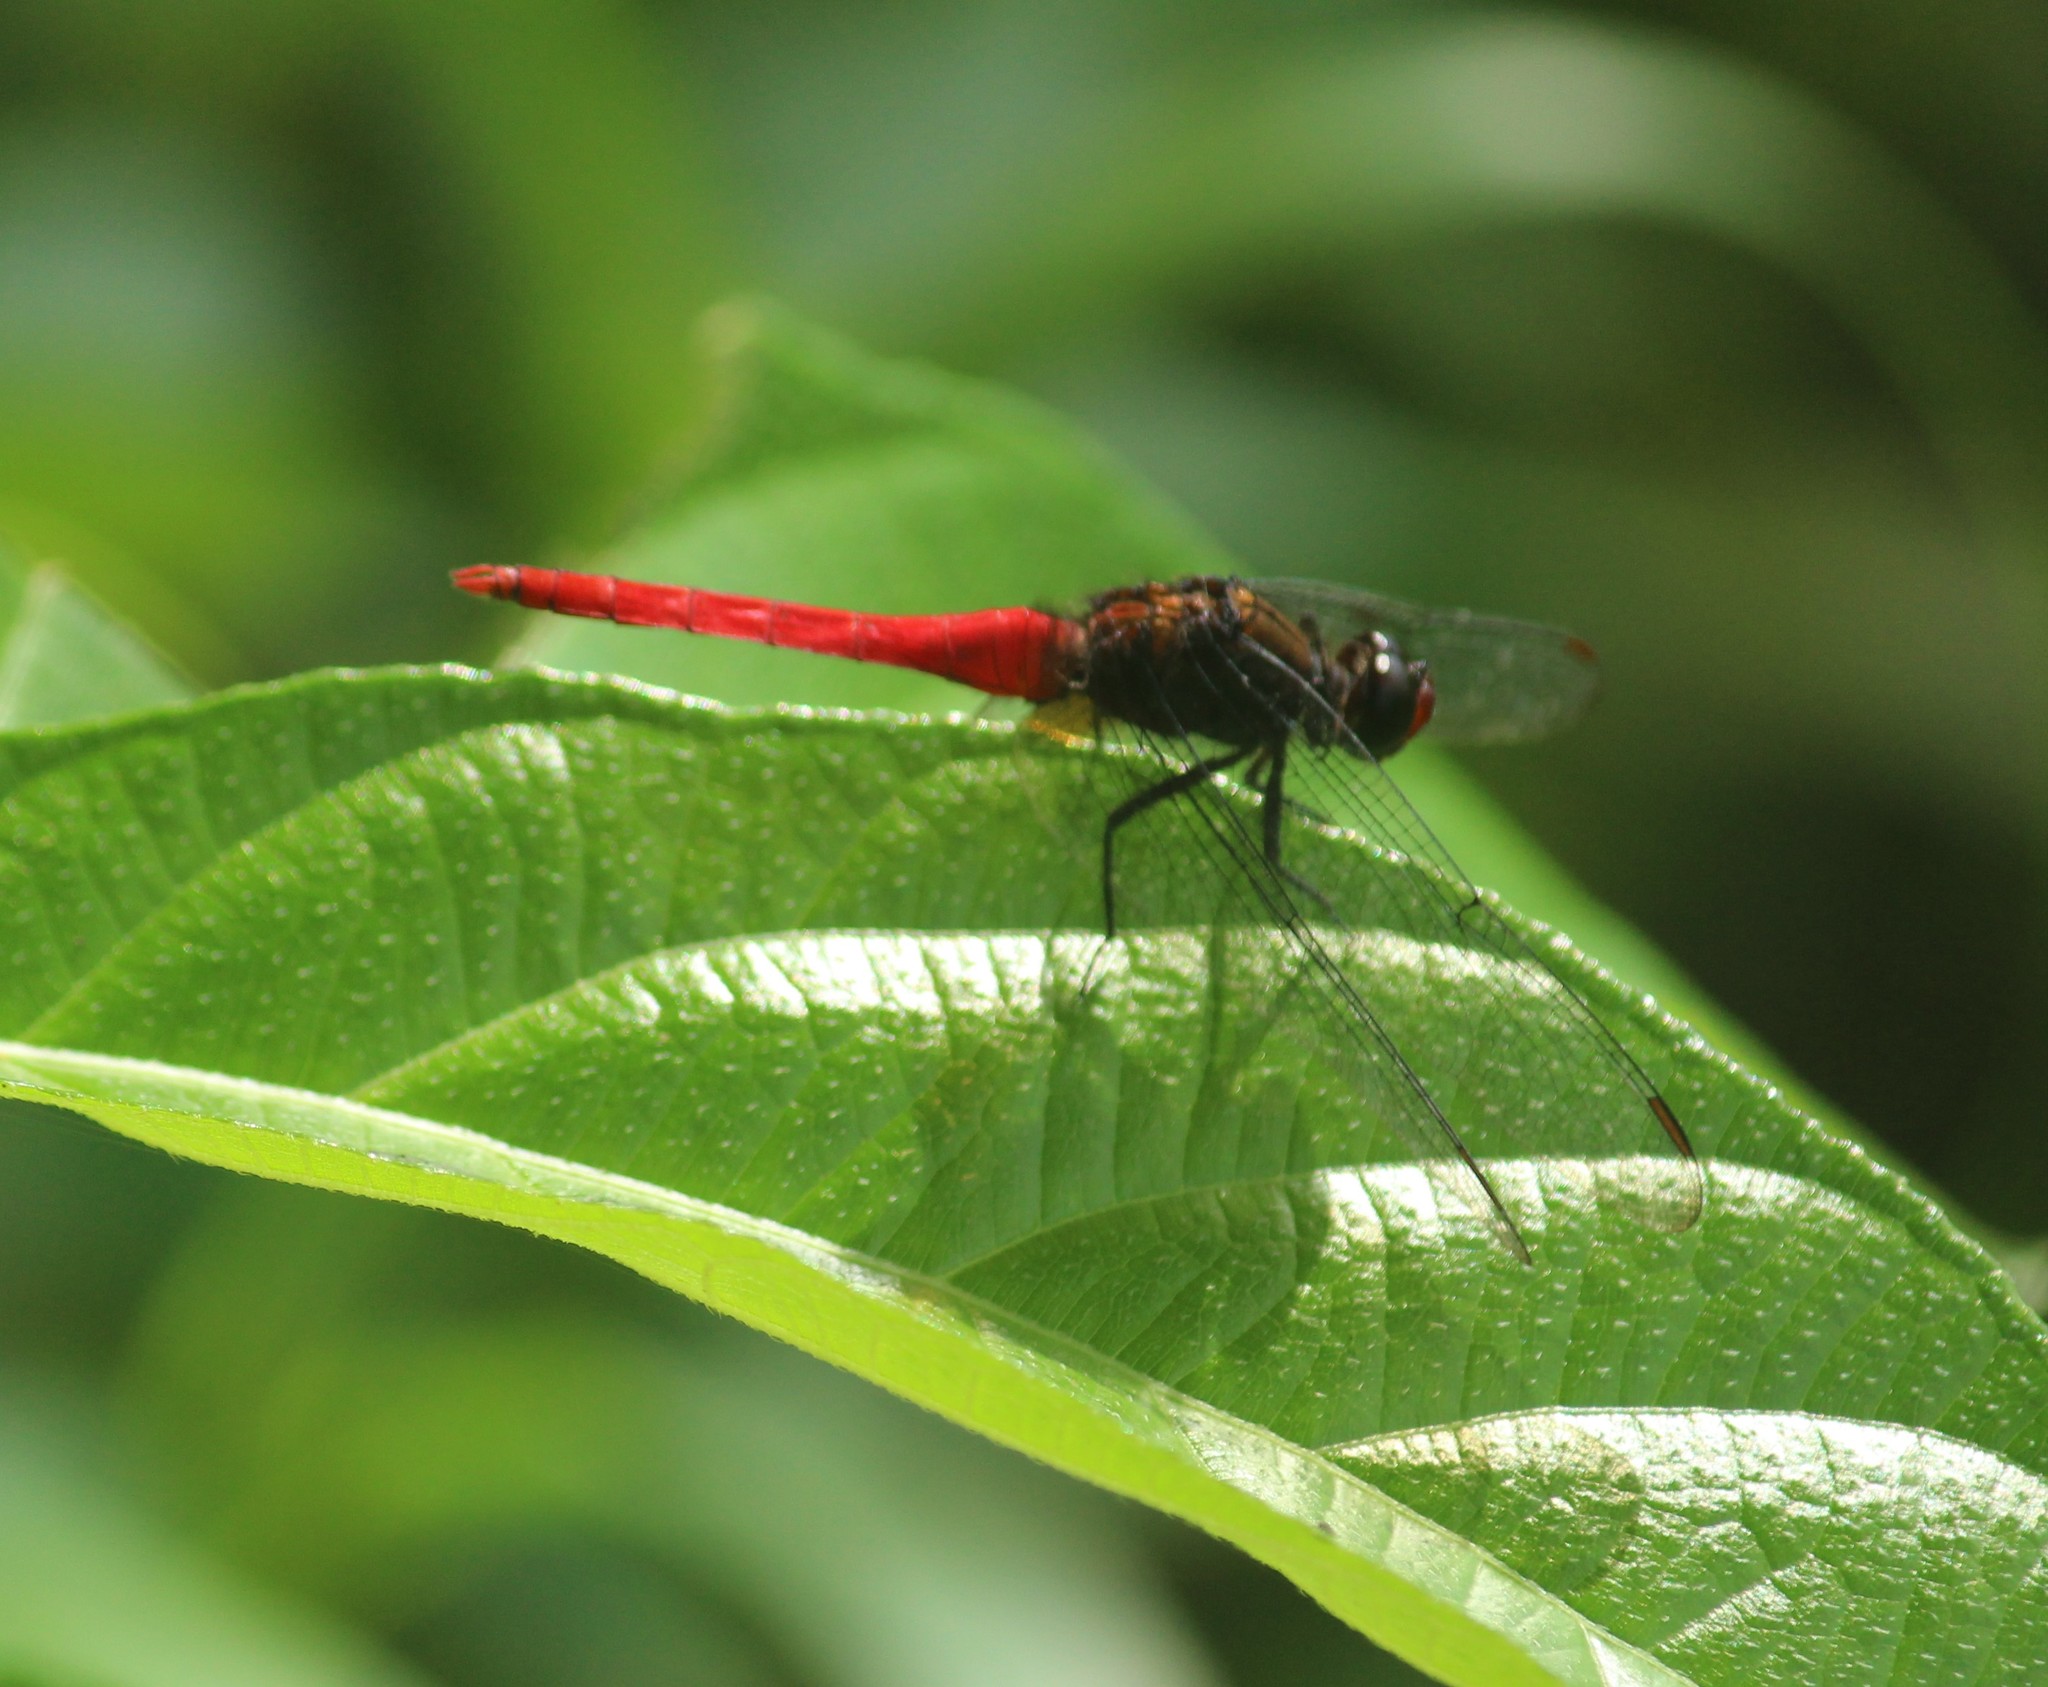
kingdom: Animalia
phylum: Arthropoda
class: Insecta
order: Odonata
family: Libellulidae
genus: Orthetrum
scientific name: Orthetrum chrysis
